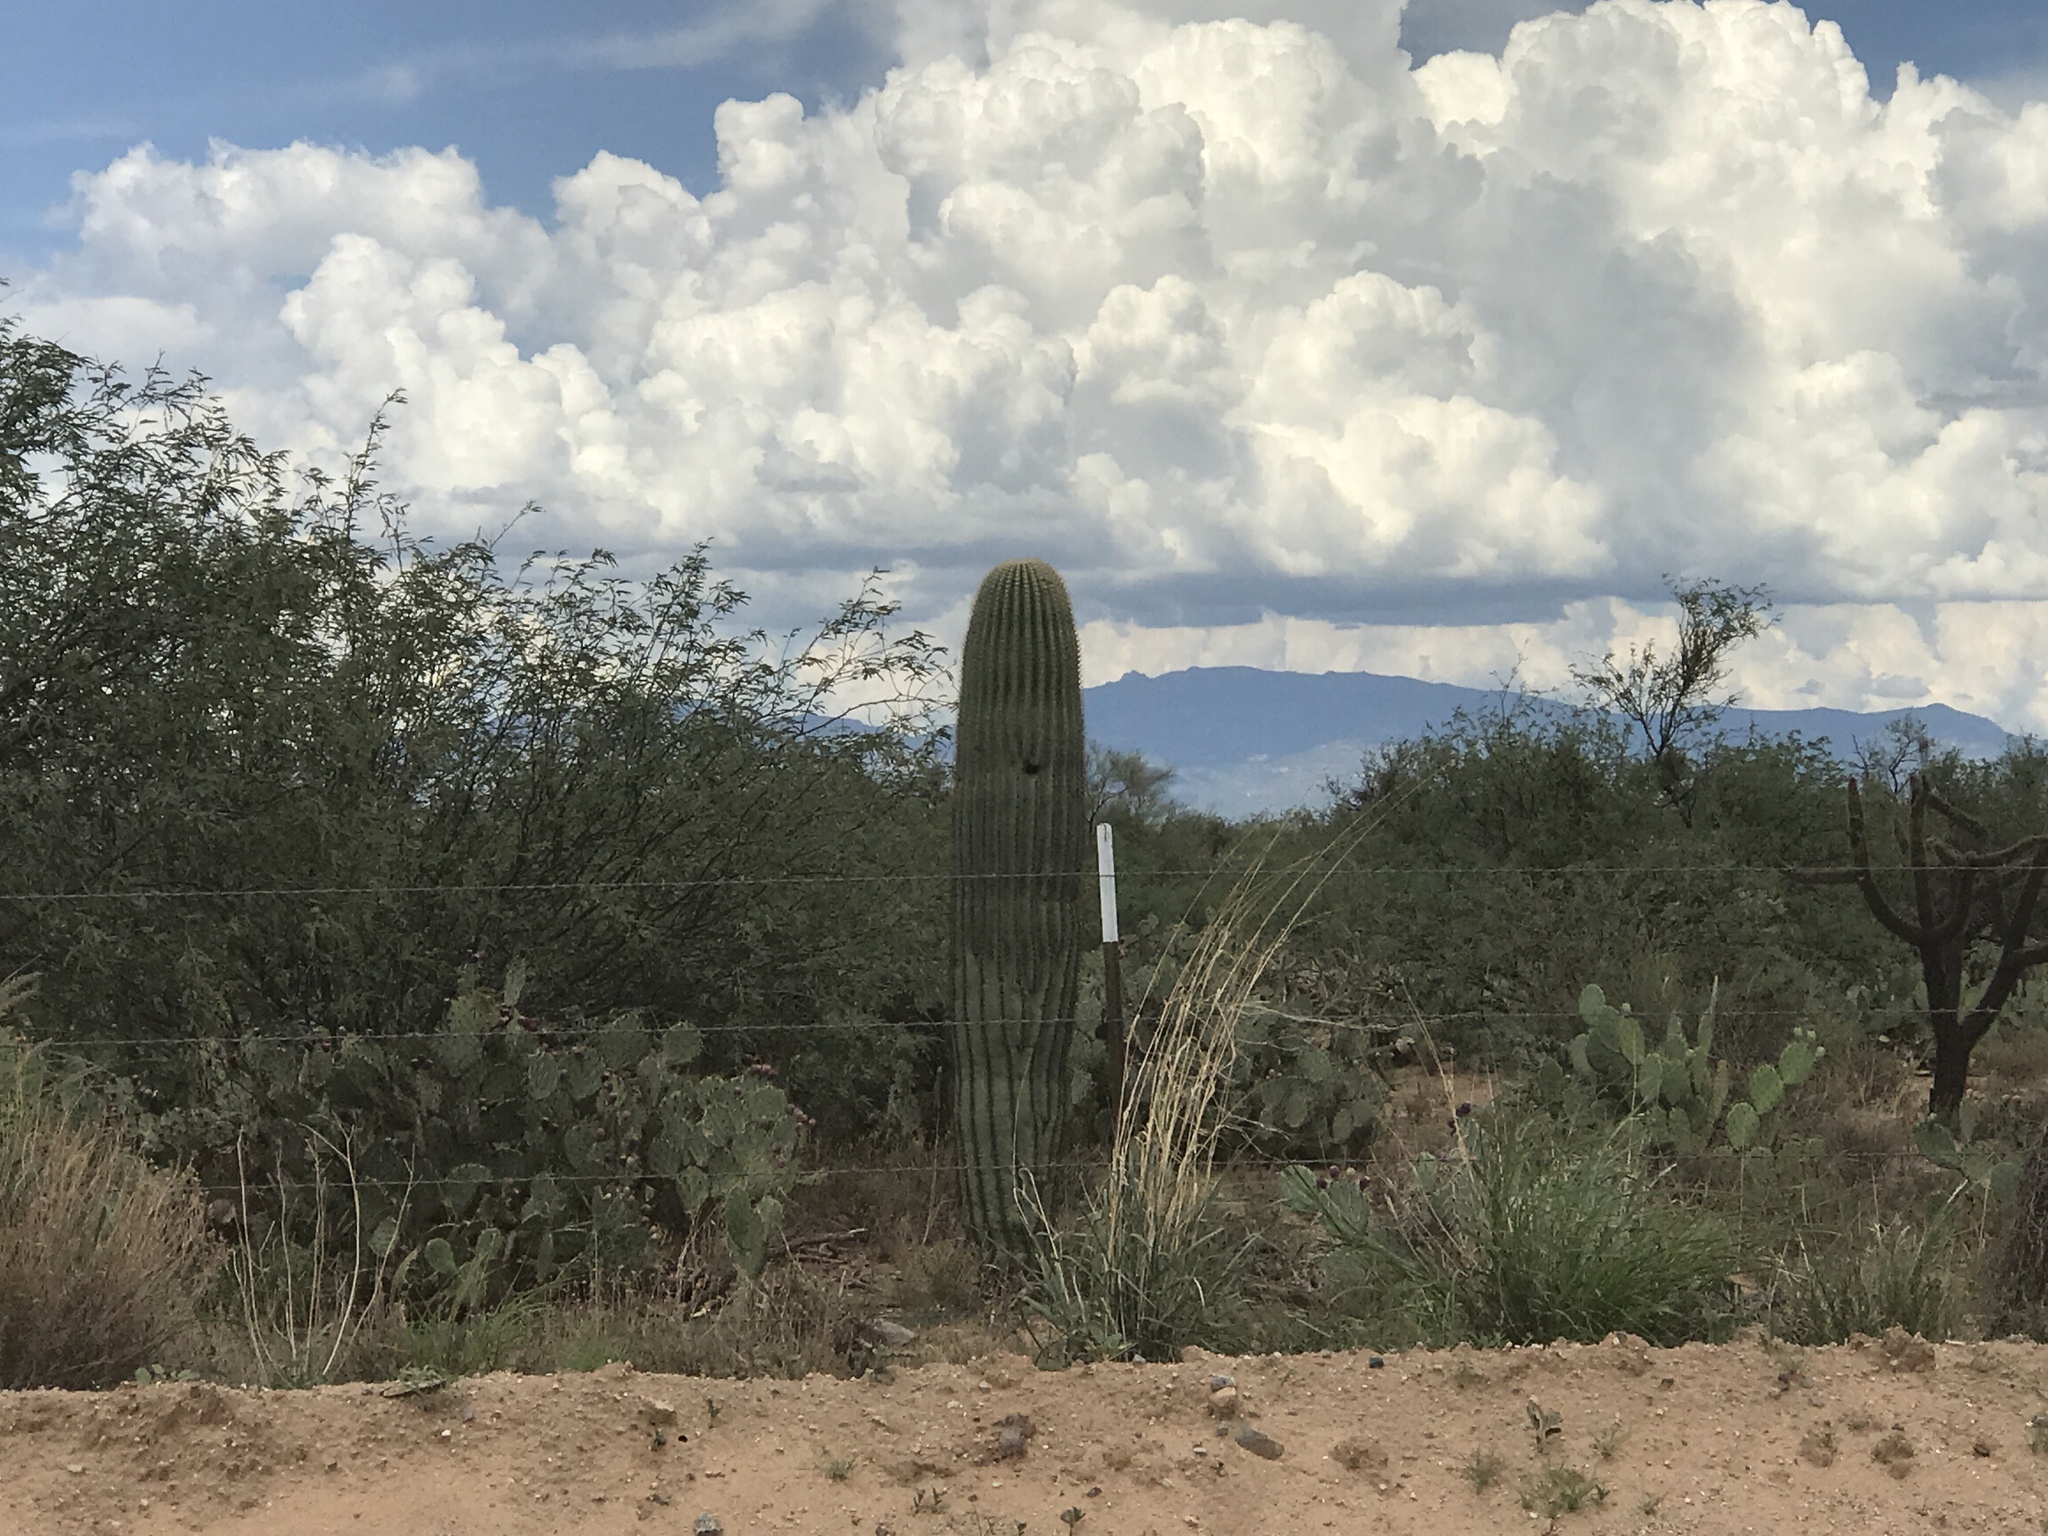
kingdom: Plantae
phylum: Tracheophyta
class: Magnoliopsida
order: Caryophyllales
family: Cactaceae
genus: Carnegiea
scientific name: Carnegiea gigantea
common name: Saguaro
